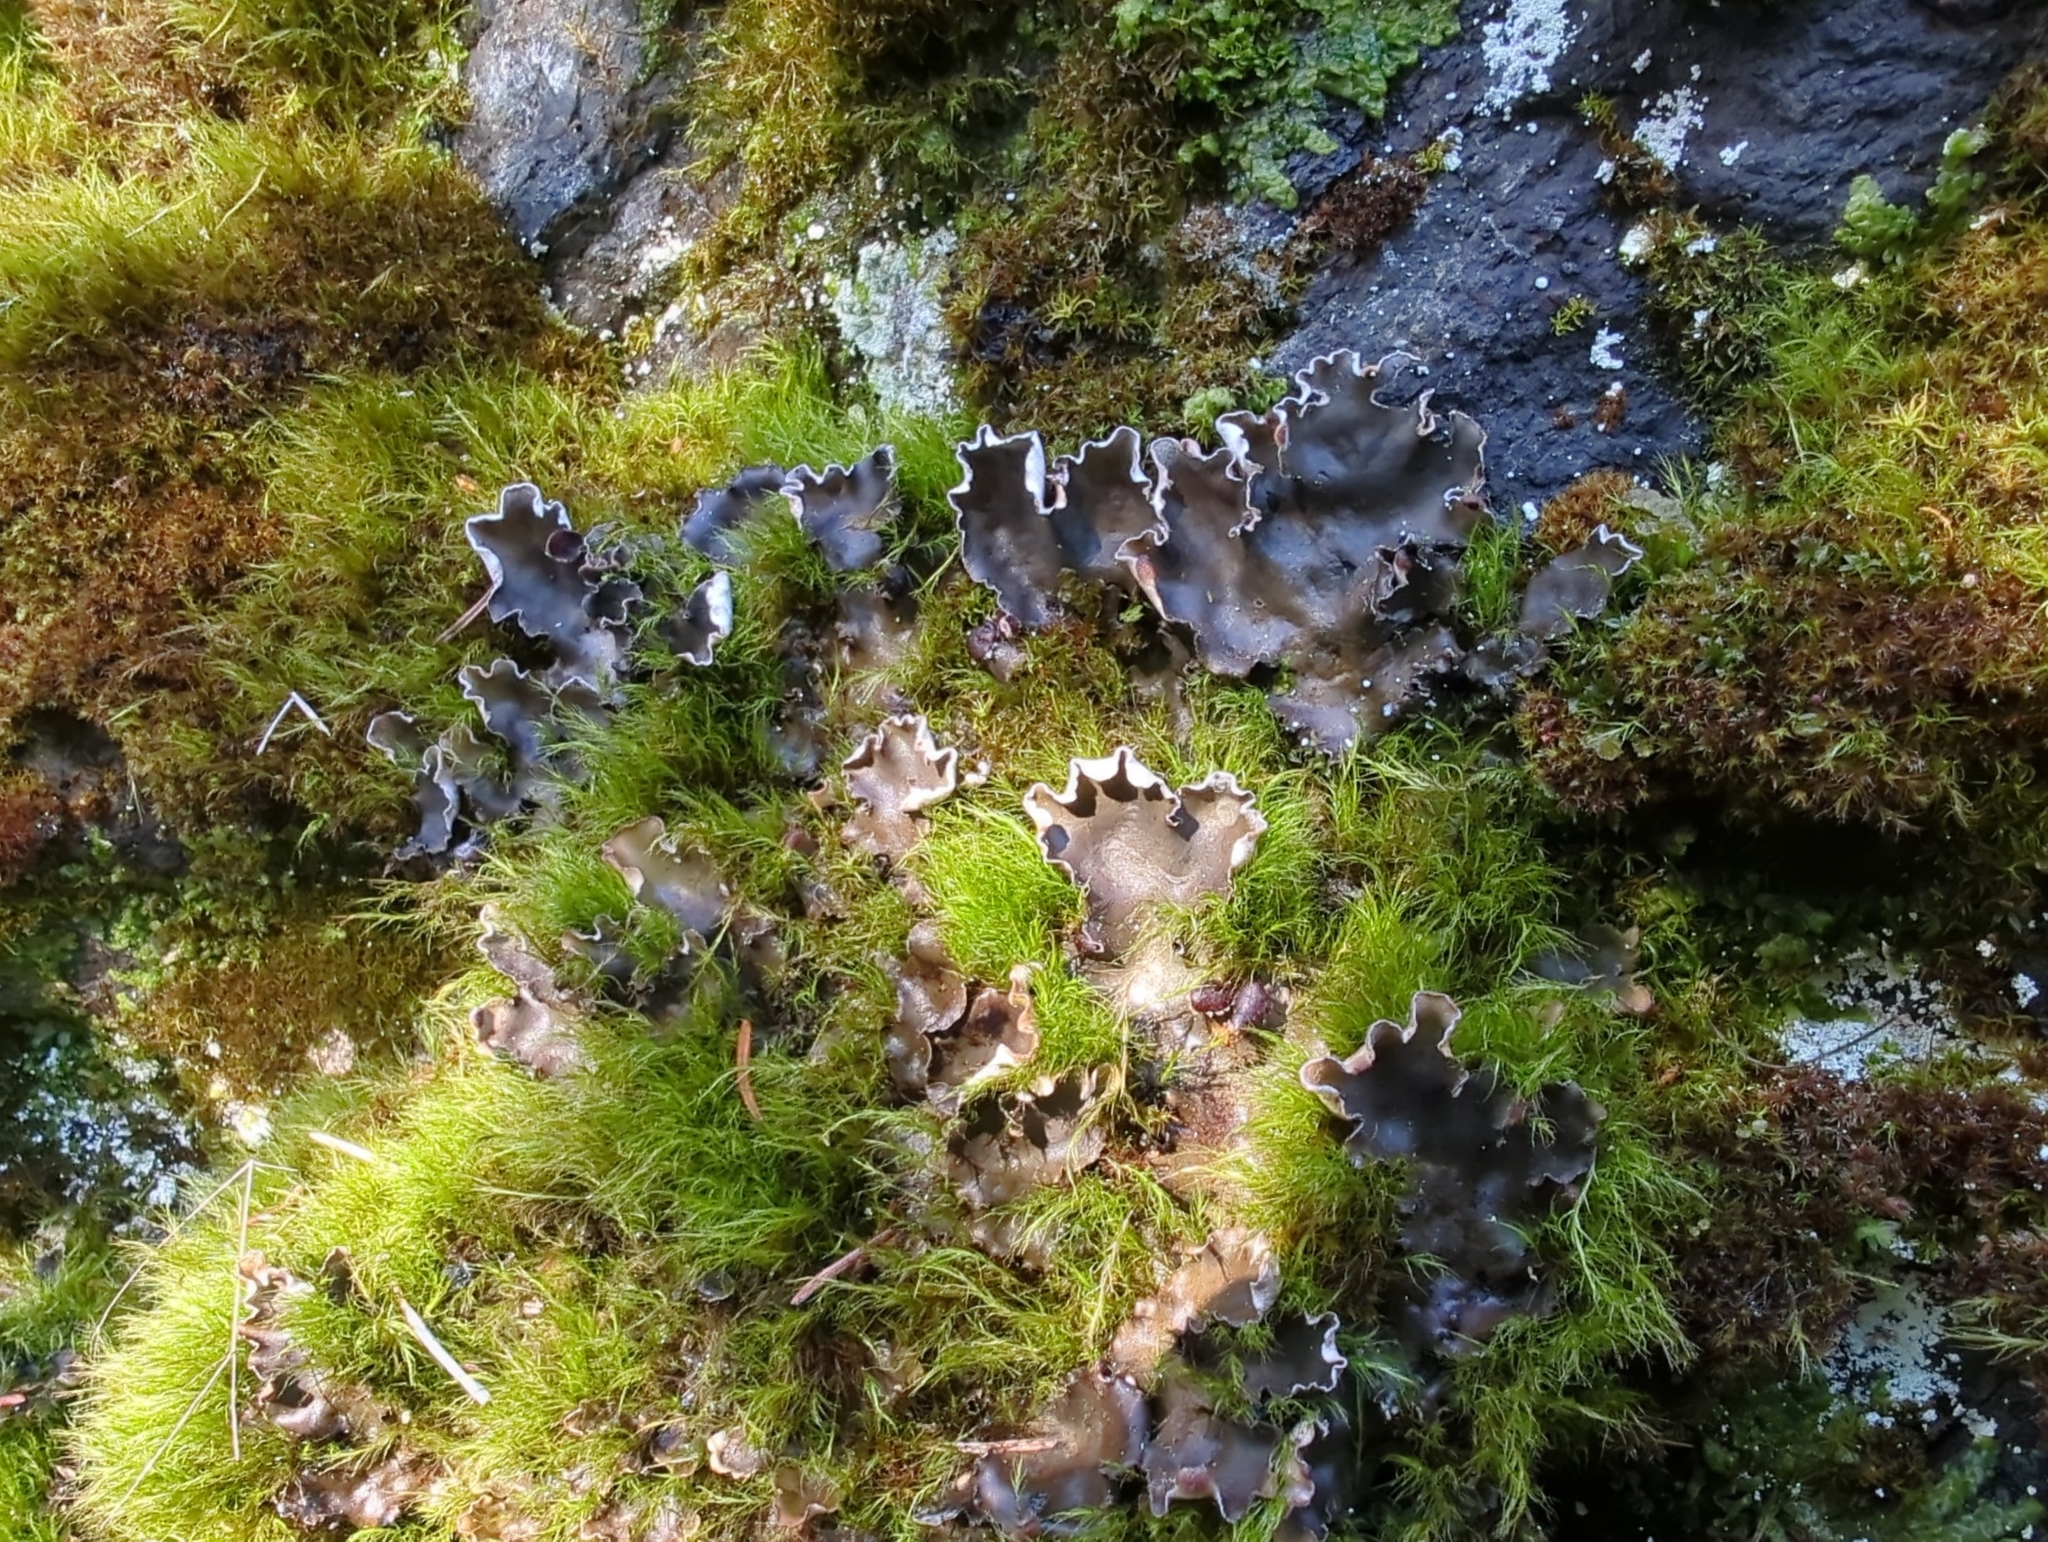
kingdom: Fungi
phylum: Ascomycota
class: Lecanoromycetes
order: Peltigerales
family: Peltigeraceae
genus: Peltigera
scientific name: Peltigera scabrosa
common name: Greater toad pelt lichen
